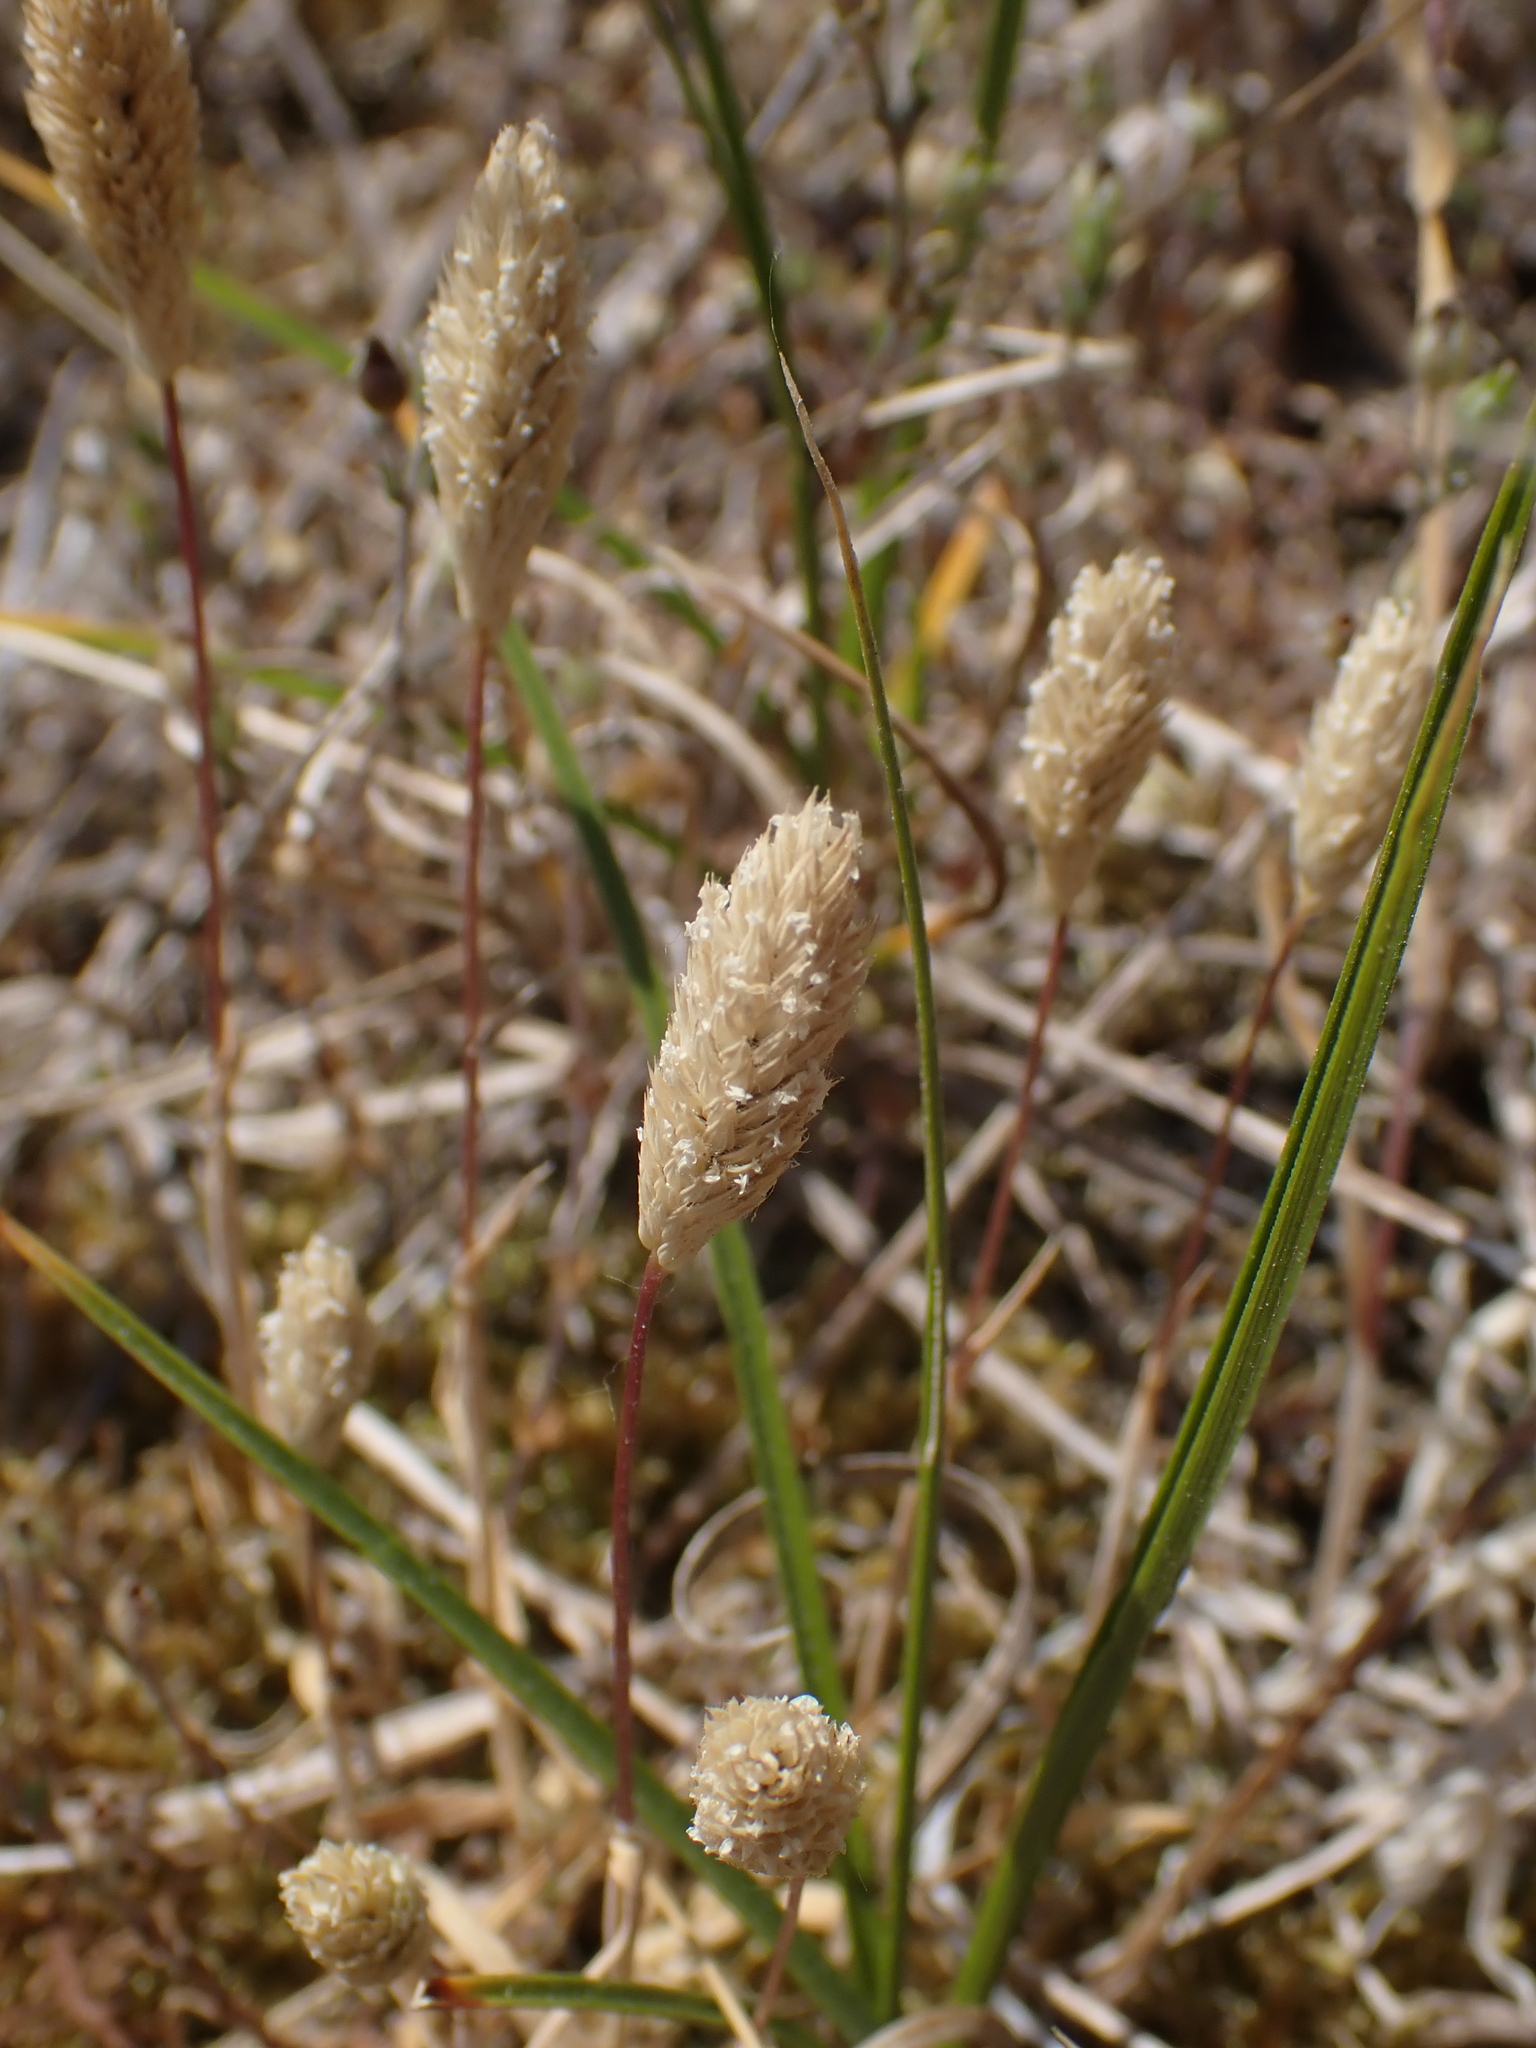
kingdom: Plantae
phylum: Tracheophyta
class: Liliopsida
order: Poales
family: Poaceae
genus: Phleum
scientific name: Phleum arenarium
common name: Sand cat's-tail
